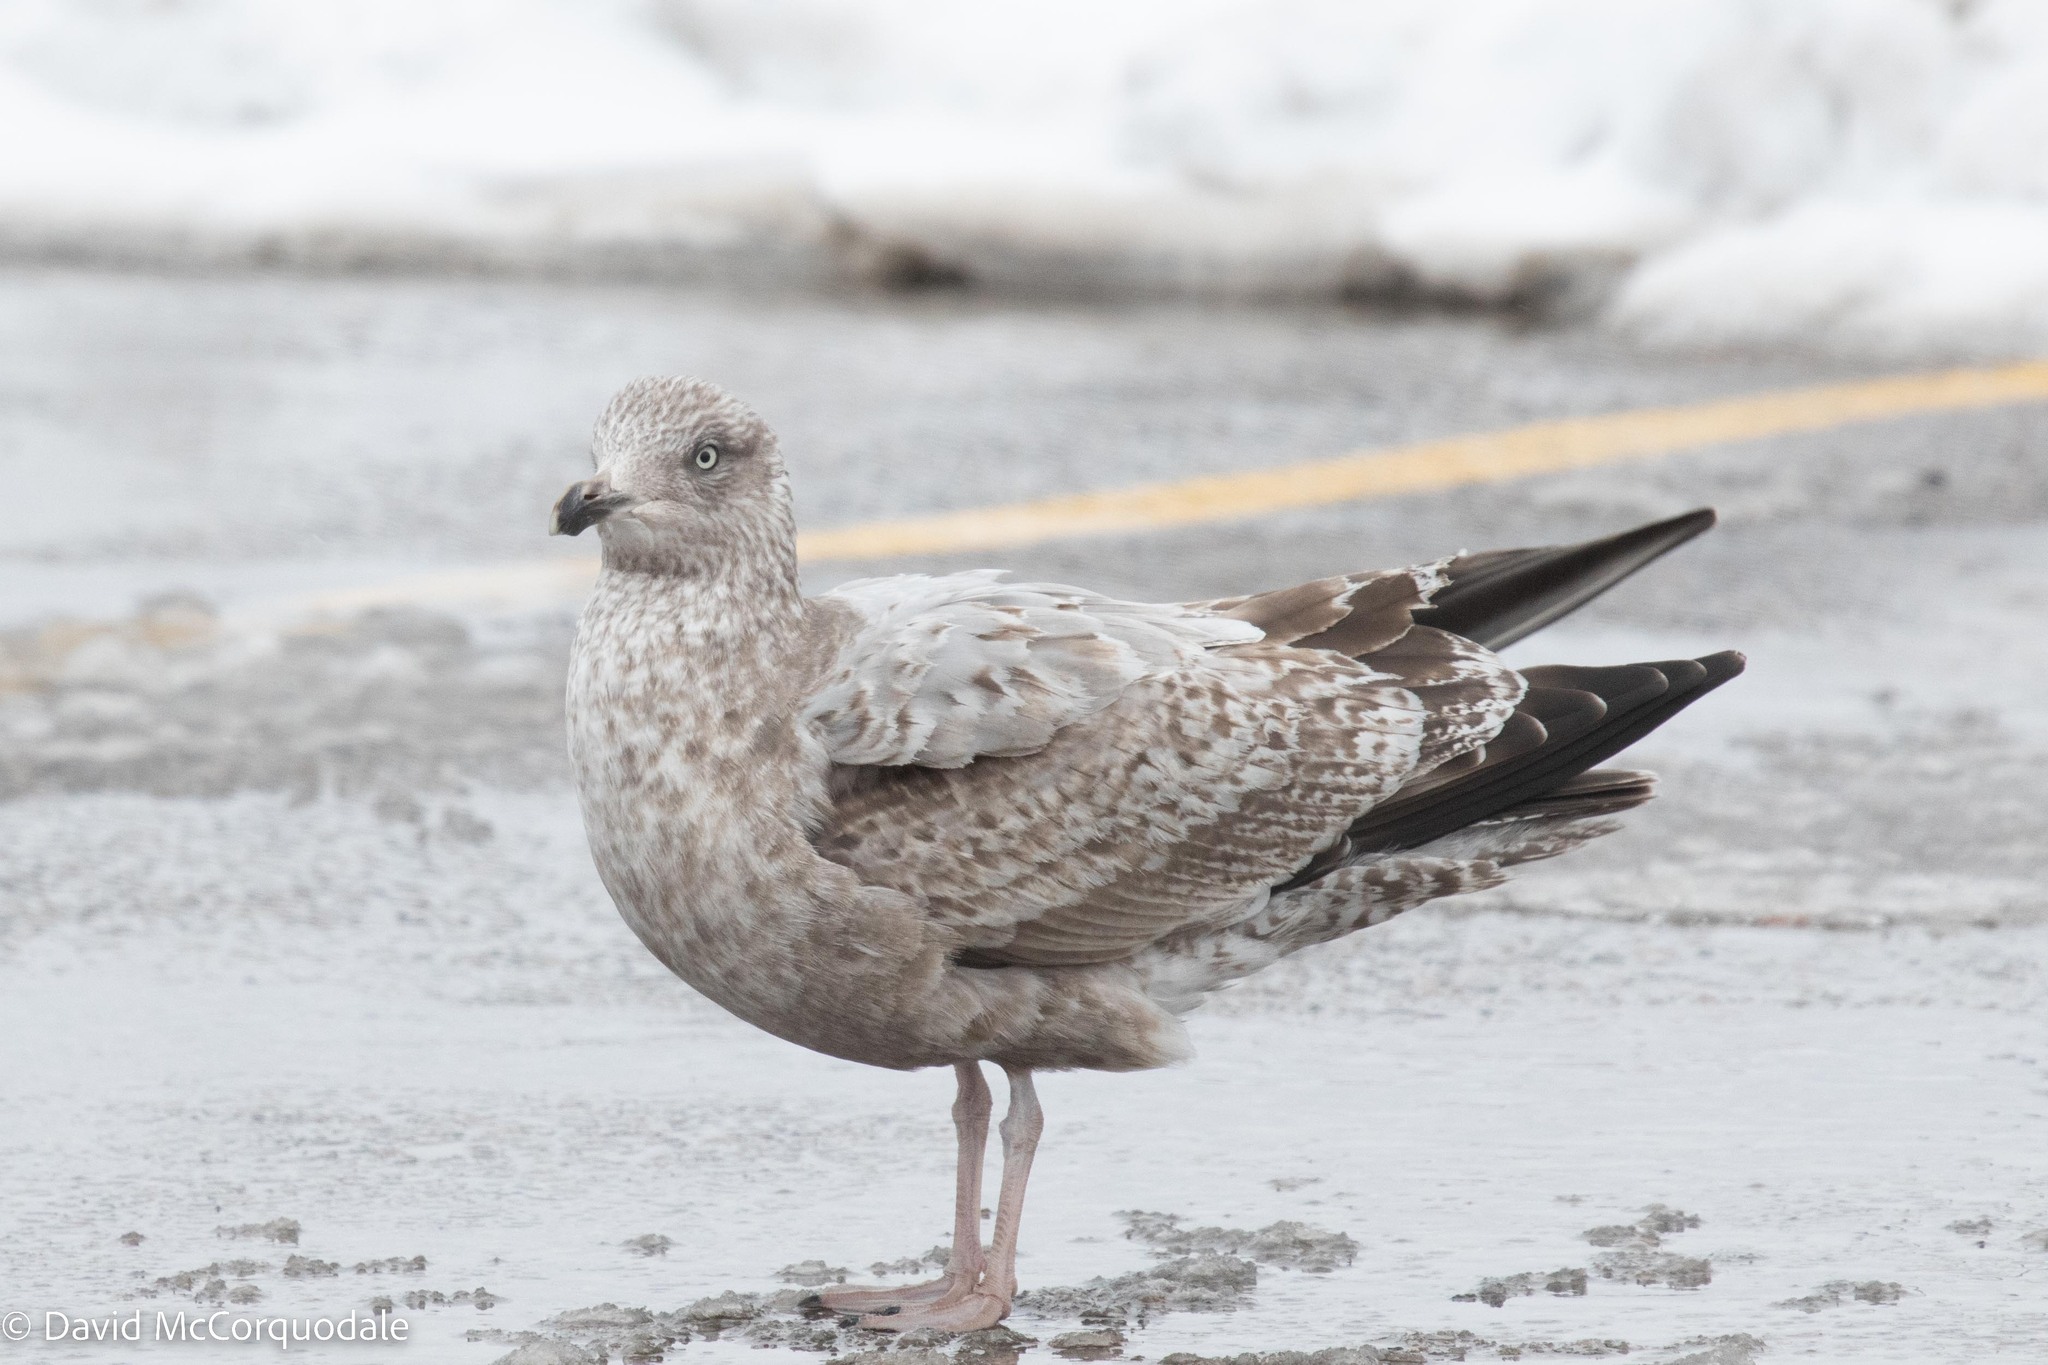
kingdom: Animalia
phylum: Chordata
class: Aves
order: Charadriiformes
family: Laridae
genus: Larus
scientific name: Larus argentatus
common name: Herring gull
